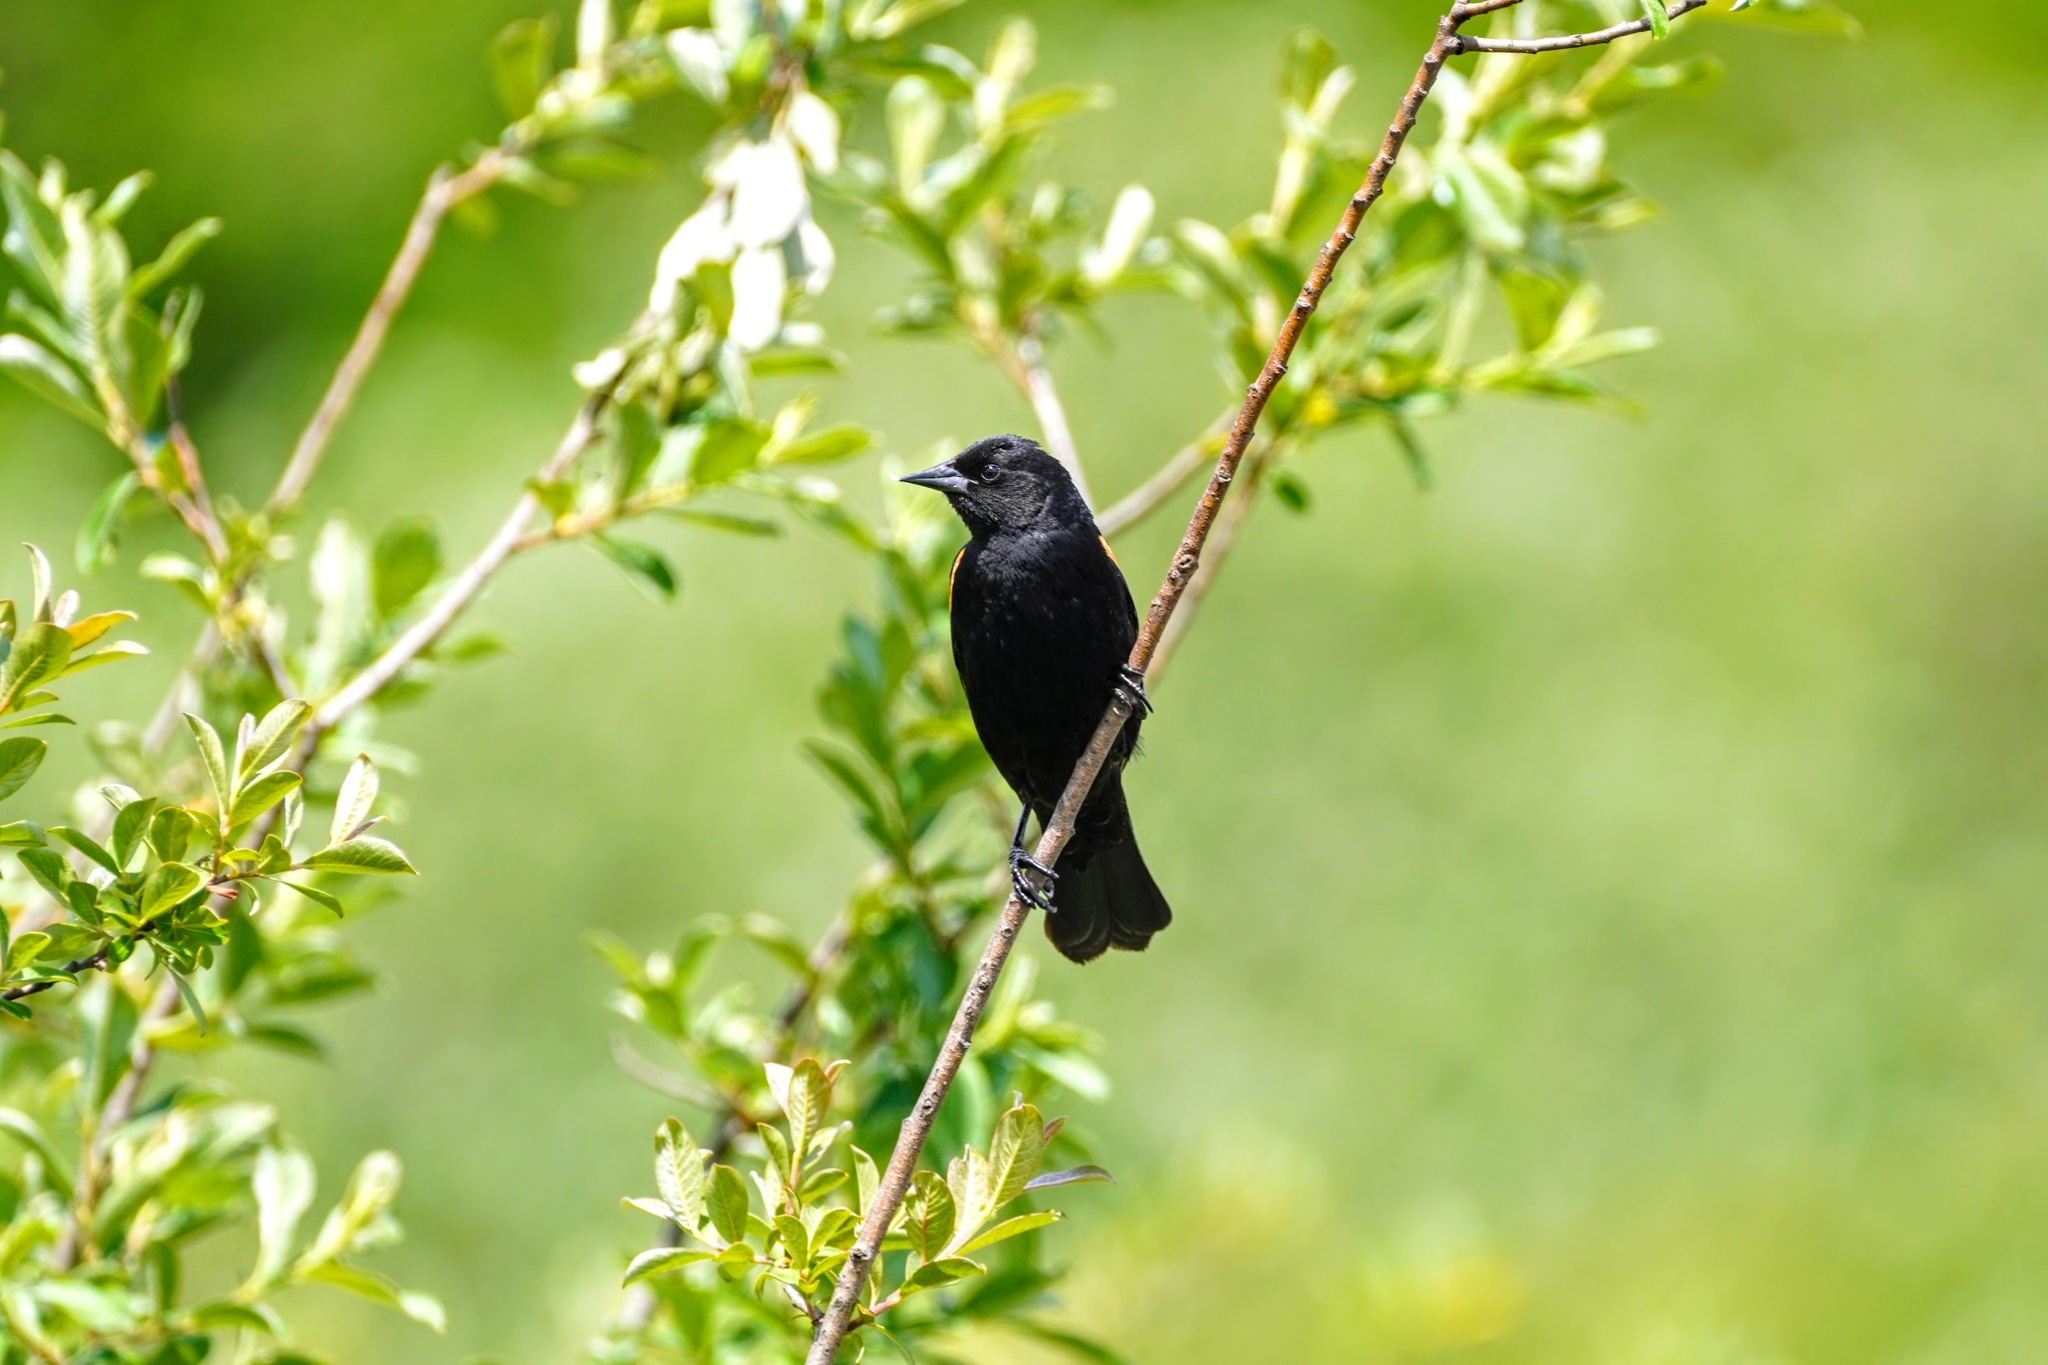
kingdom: Animalia
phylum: Chordata
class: Aves
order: Passeriformes
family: Icteridae
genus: Agelaius
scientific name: Agelaius phoeniceus
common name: Red-winged blackbird
